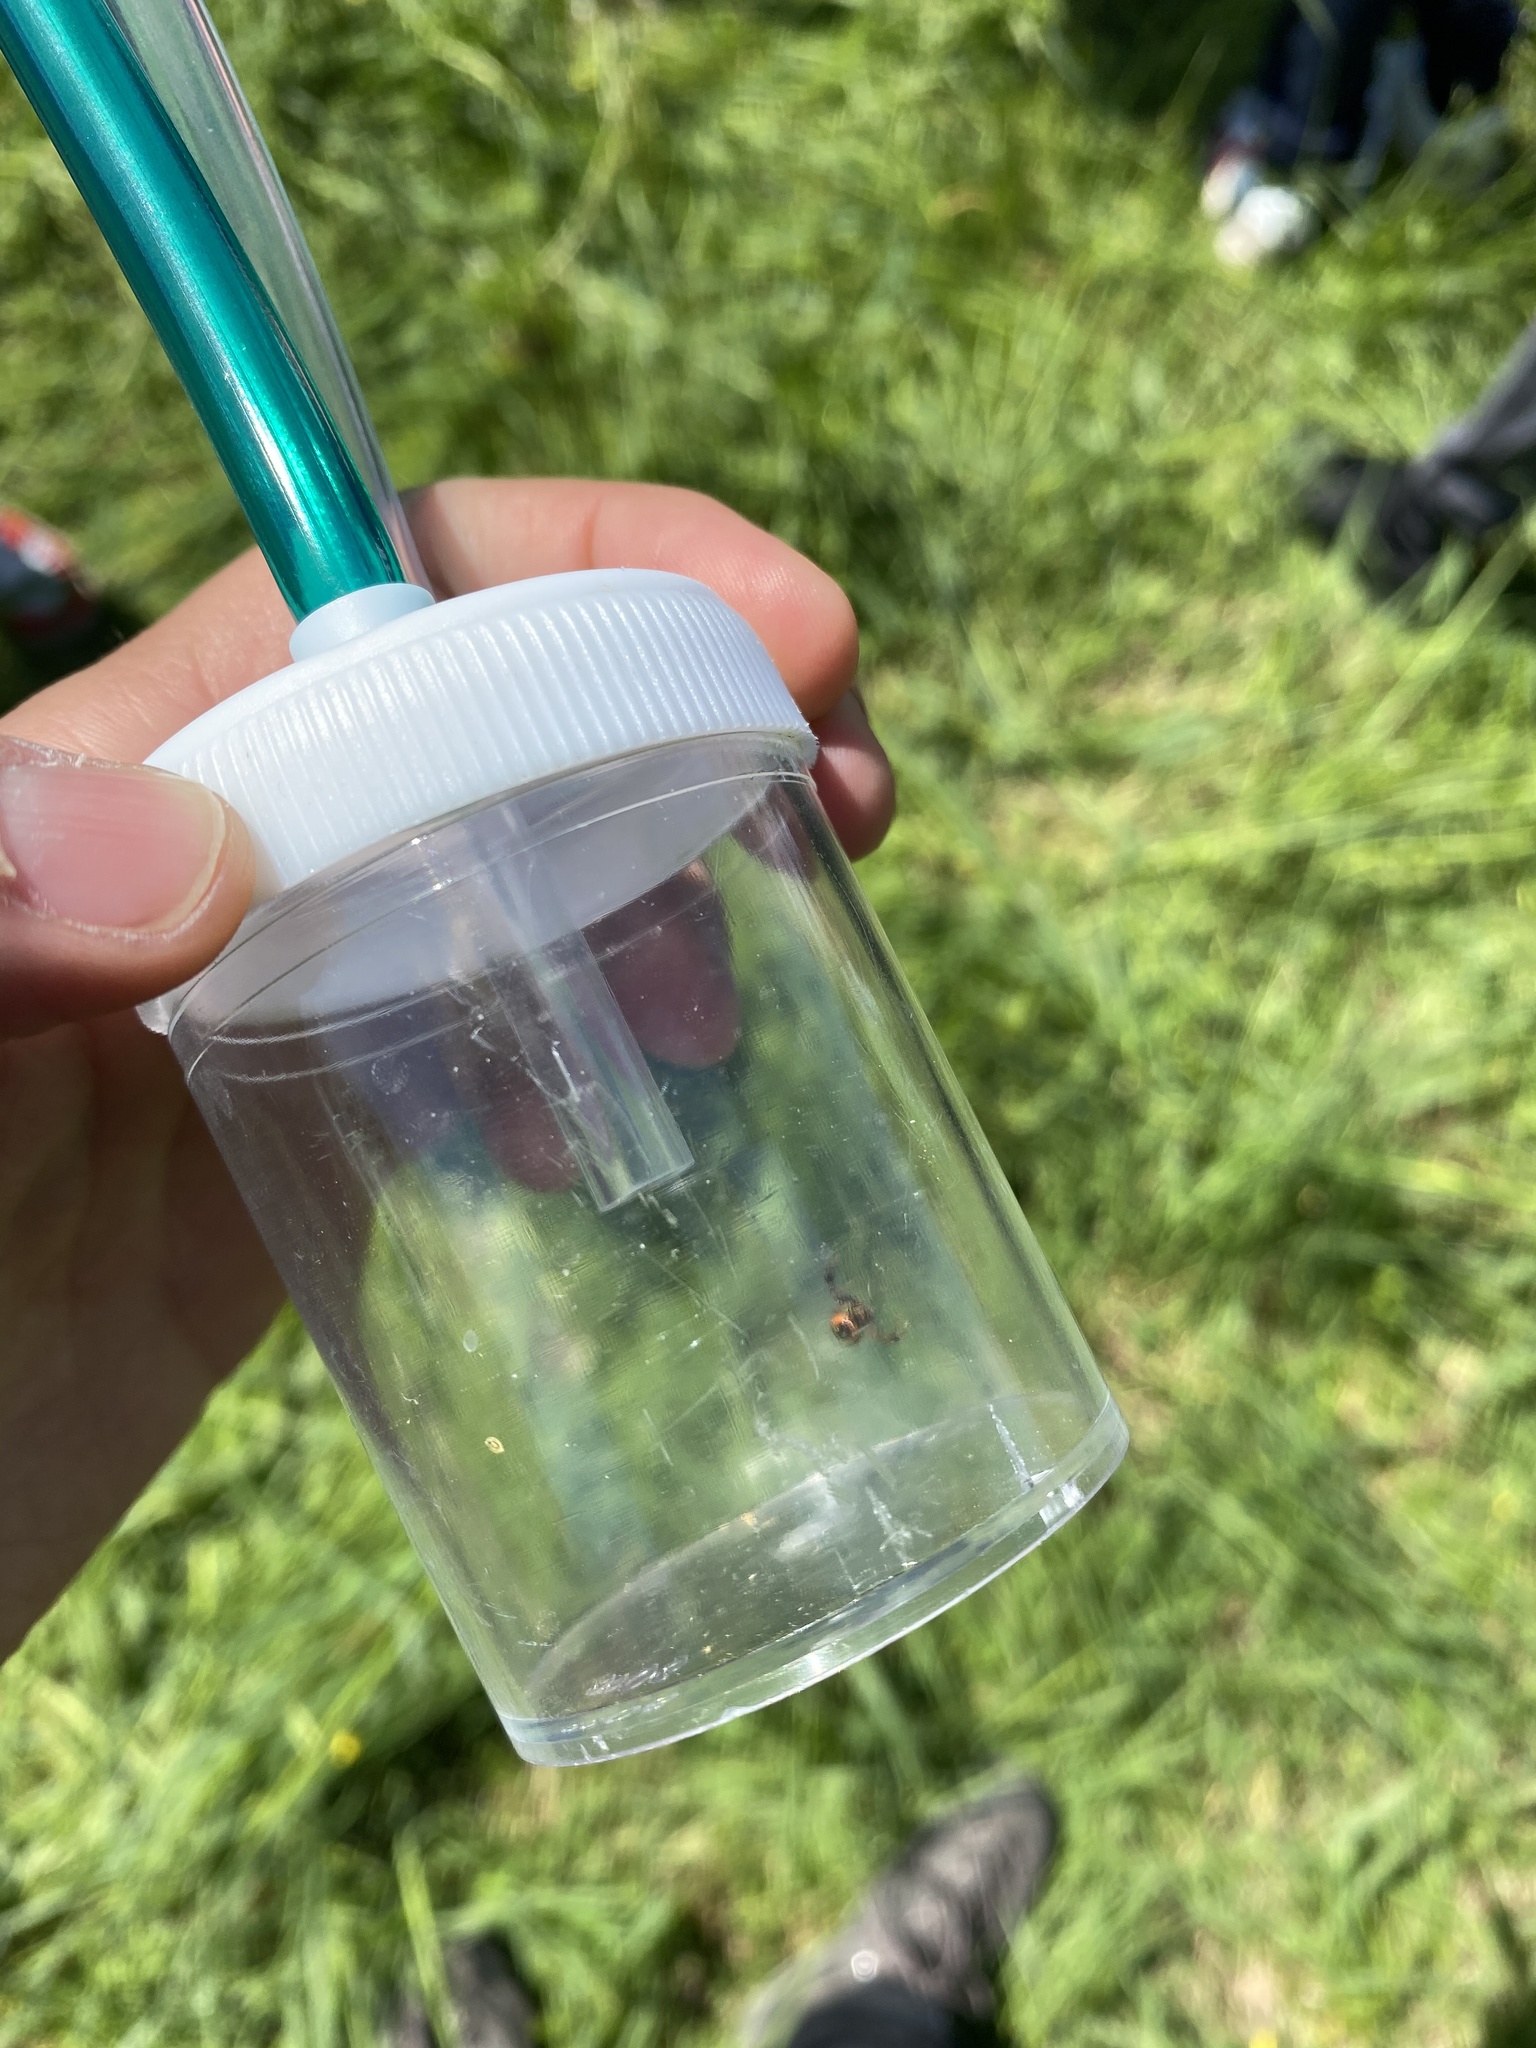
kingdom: Animalia
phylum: Arthropoda
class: Arachnida
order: Araneae
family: Thomisidae
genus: Synema
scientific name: Synema globosum
